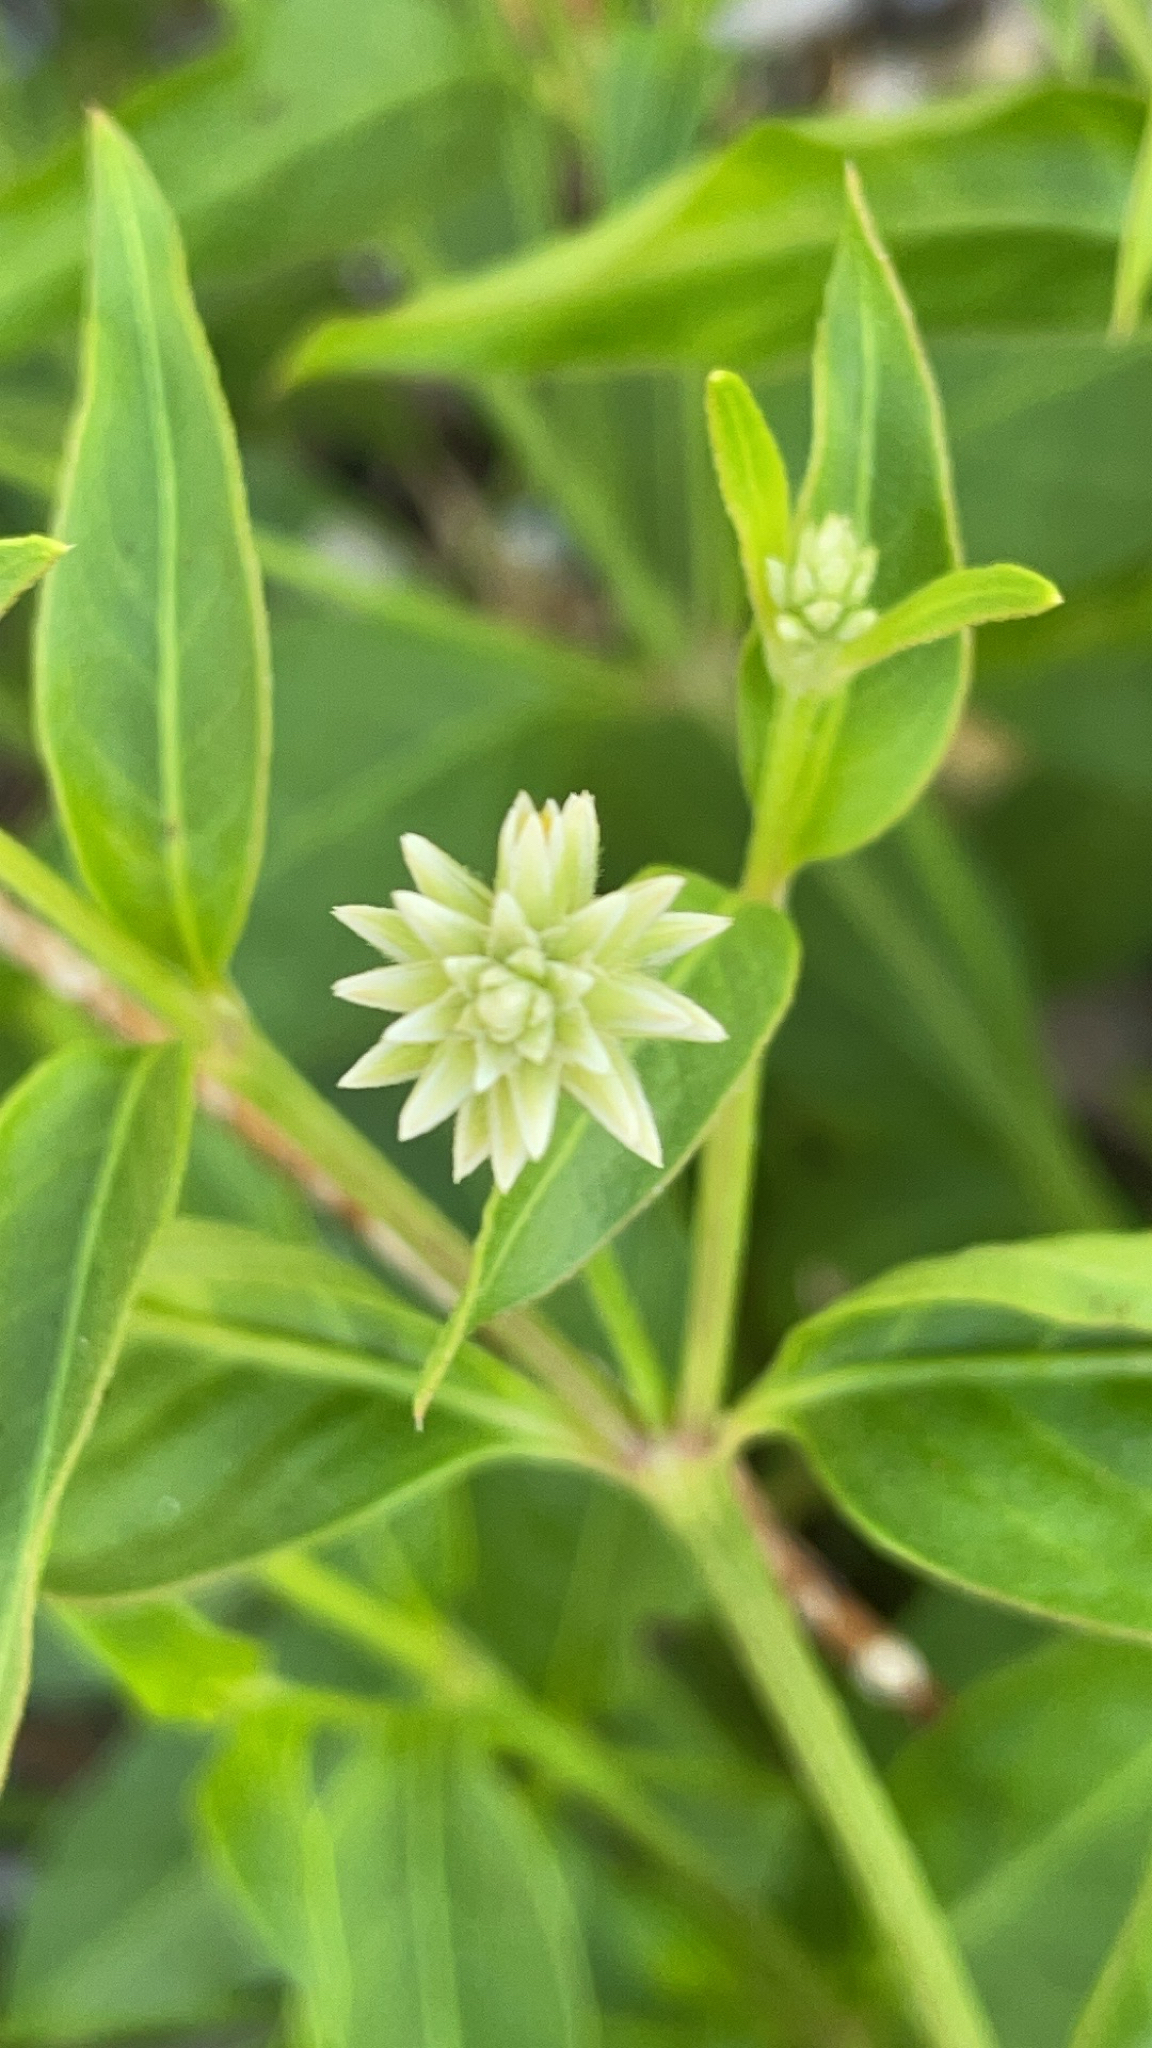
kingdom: Plantae
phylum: Tracheophyta
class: Magnoliopsida
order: Caryophyllales
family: Amaranthaceae
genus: Alternanthera
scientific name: Alternanthera flavescens
